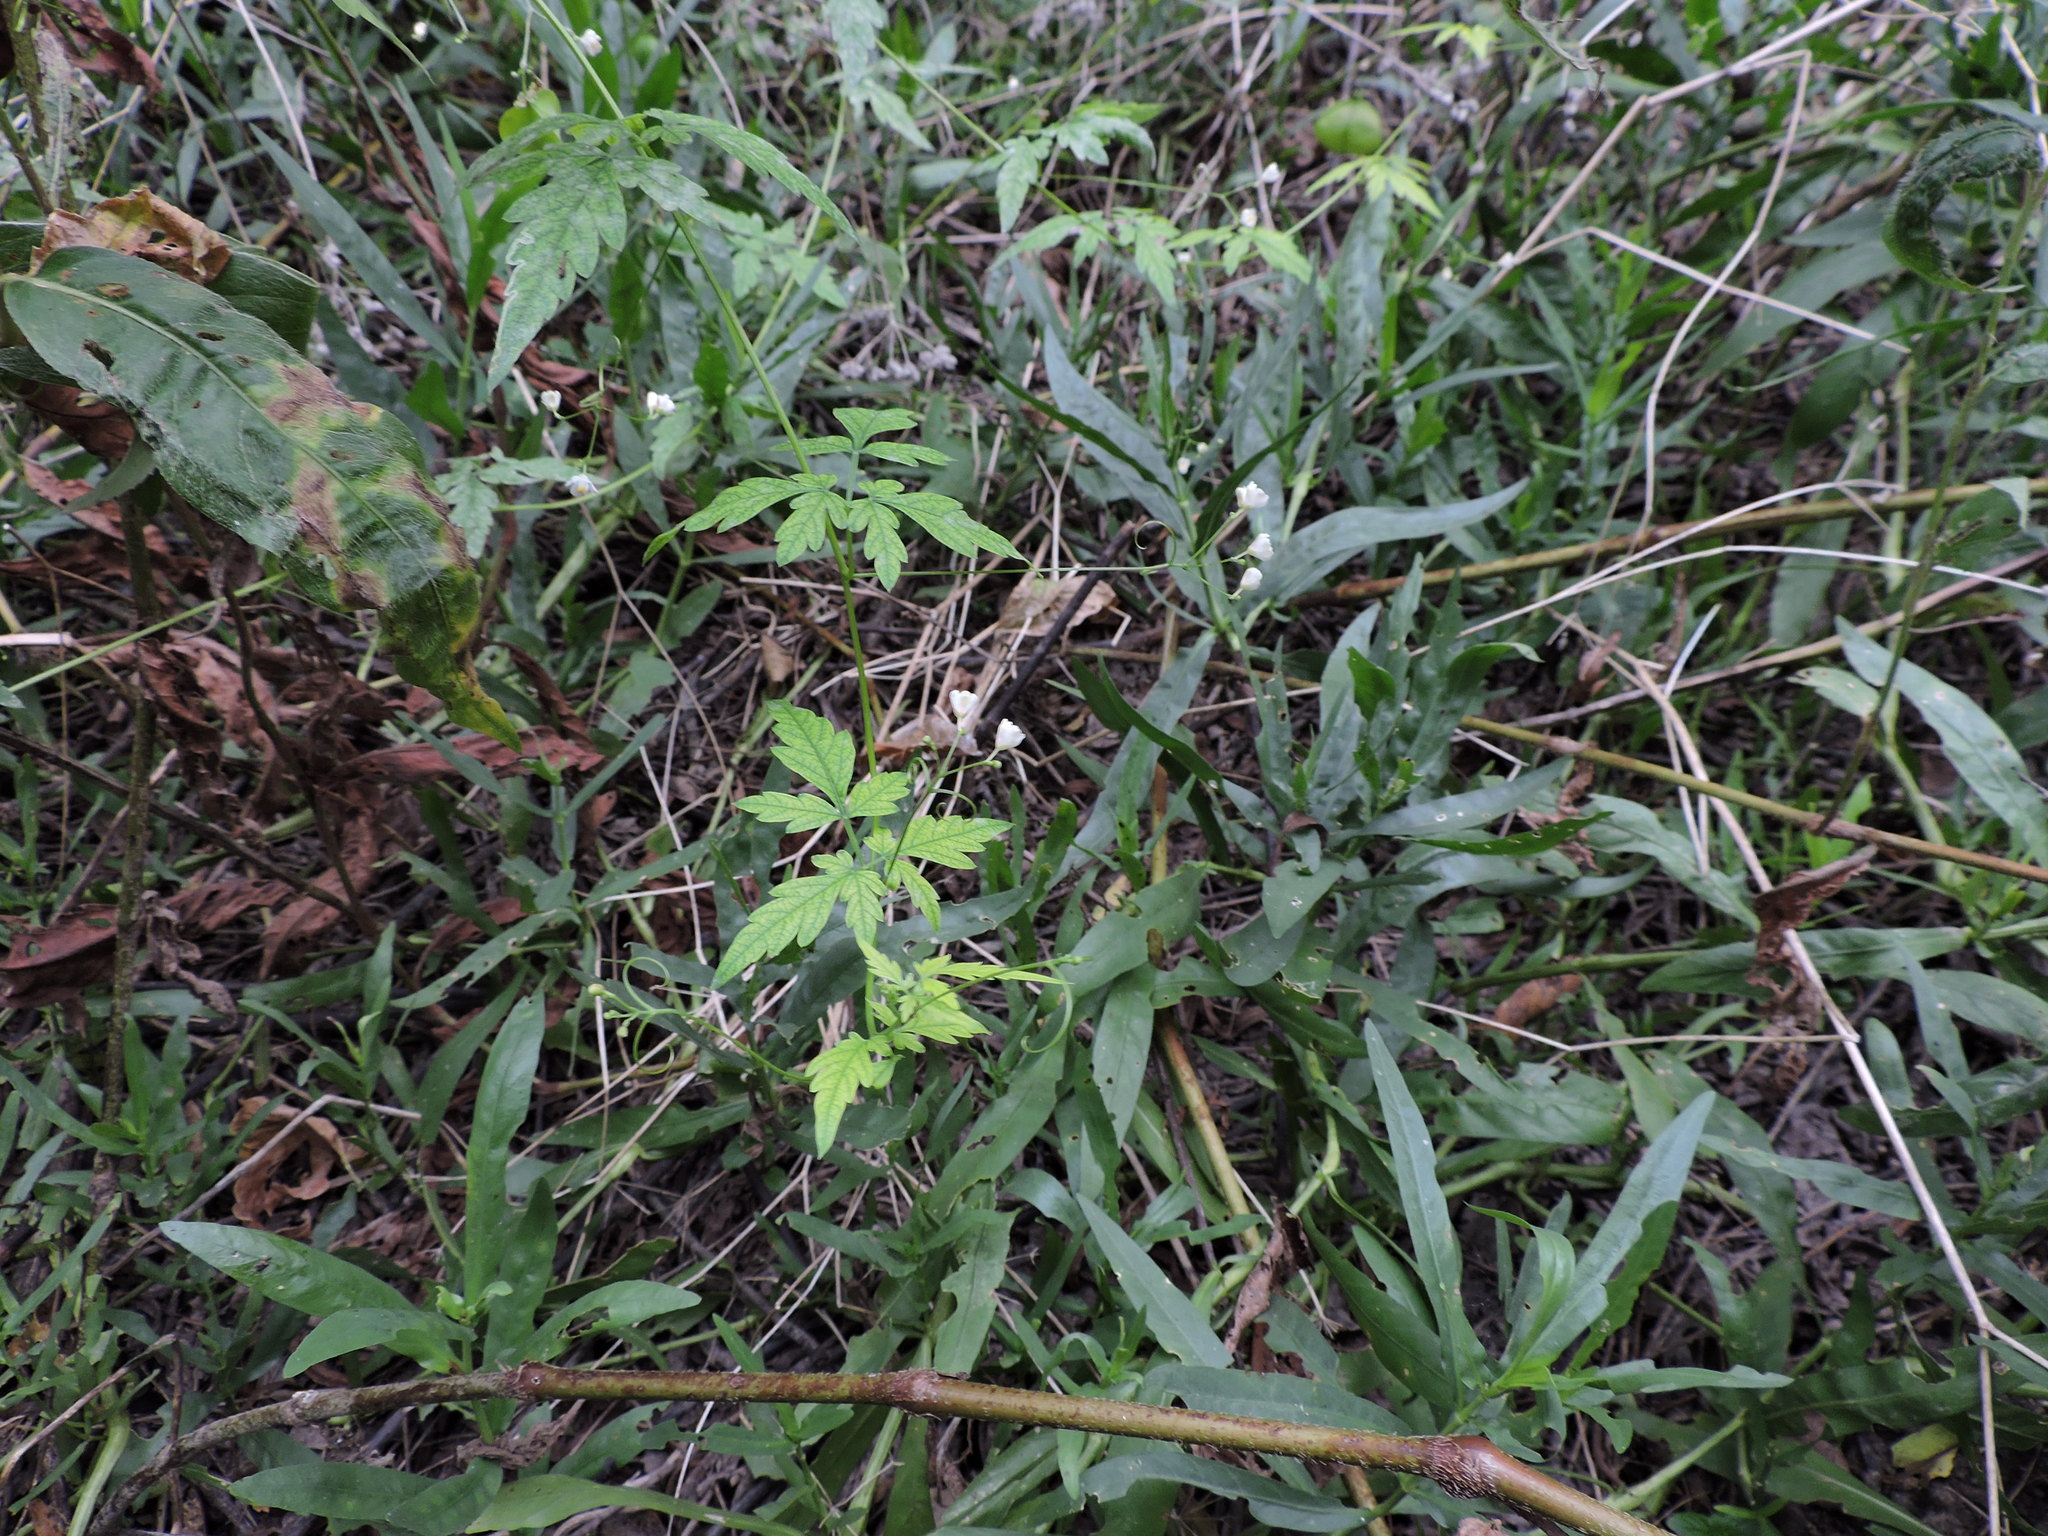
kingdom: Plantae
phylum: Tracheophyta
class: Magnoliopsida
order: Sapindales
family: Sapindaceae
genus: Cardiospermum
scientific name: Cardiospermum halicacabum
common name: Balloon vine
